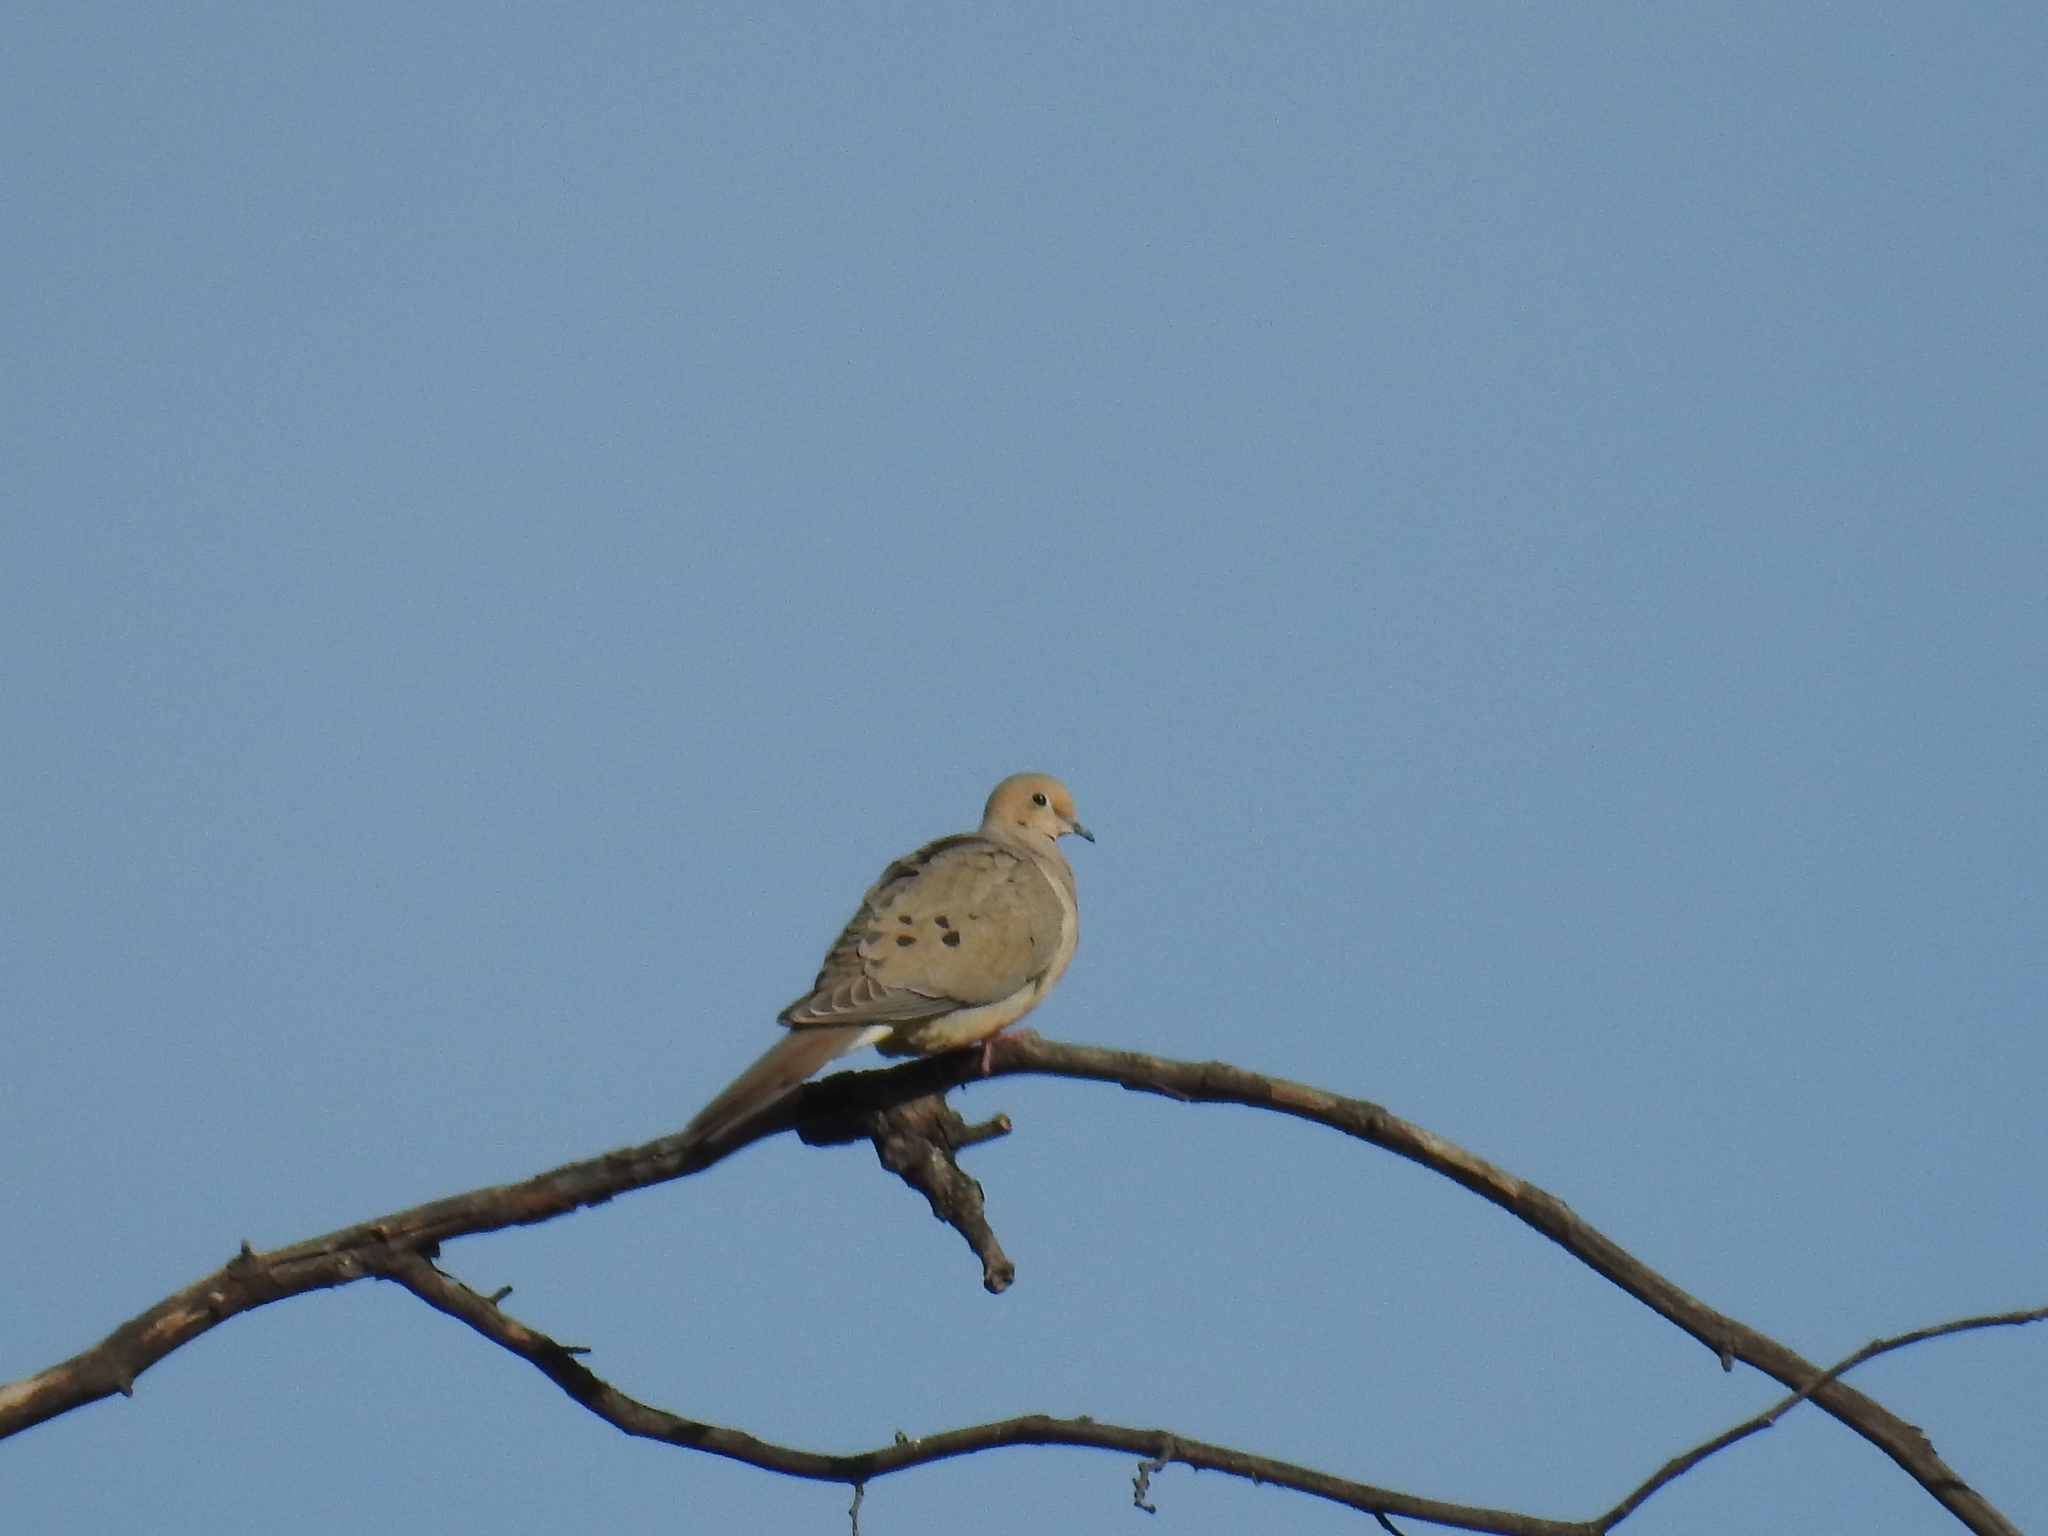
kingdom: Animalia
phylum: Chordata
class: Aves
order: Columbiformes
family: Columbidae
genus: Zenaida
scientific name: Zenaida macroura
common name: Mourning dove
